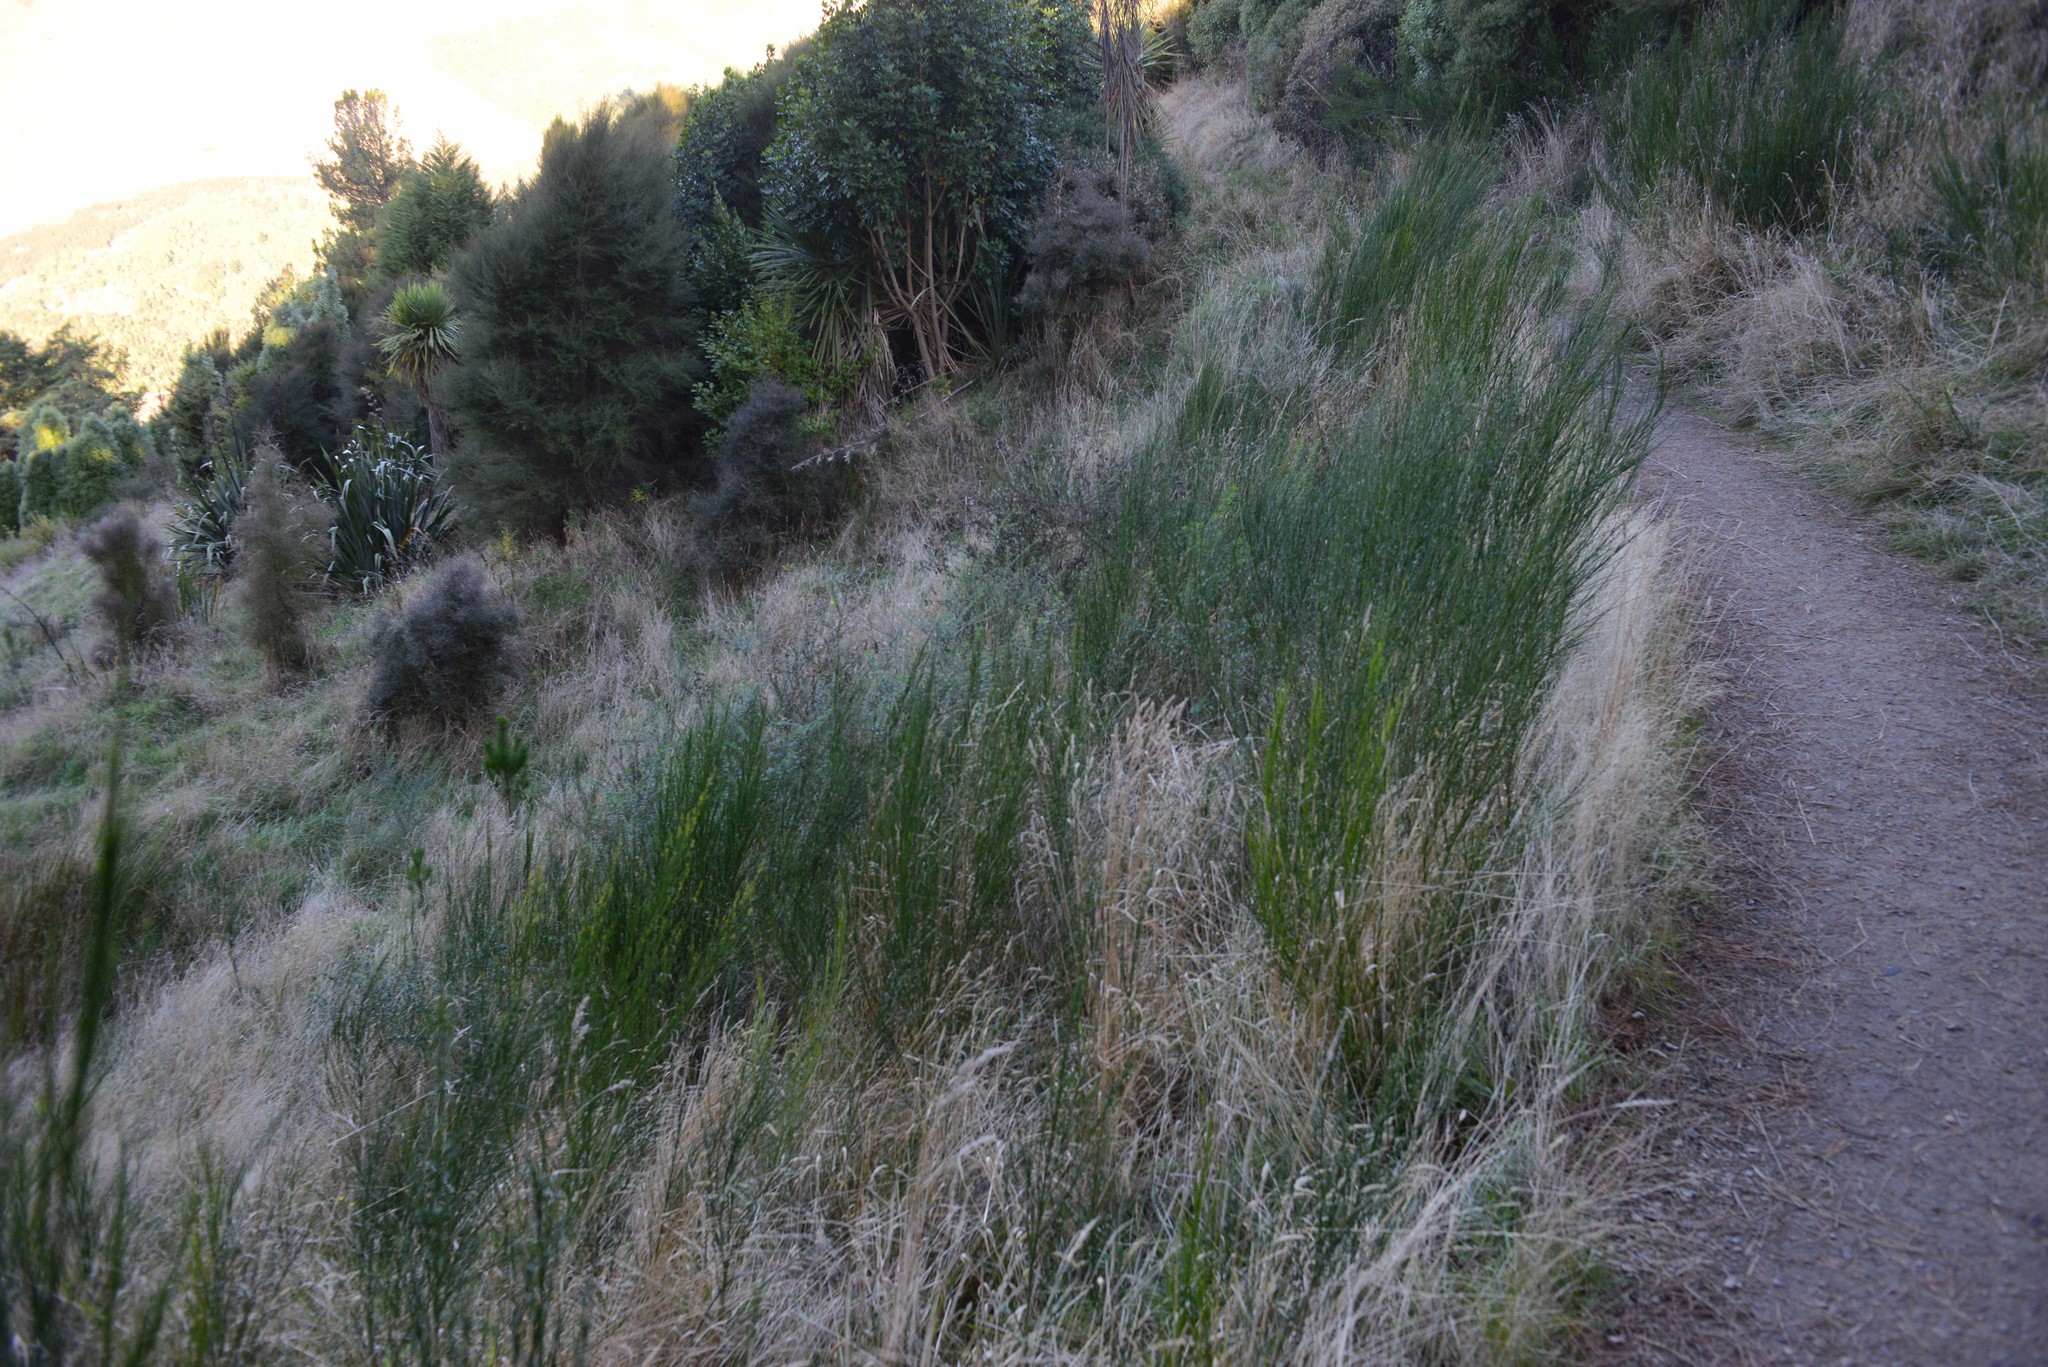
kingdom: Plantae
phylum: Tracheophyta
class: Magnoliopsida
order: Fabales
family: Fabaceae
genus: Cytisus
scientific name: Cytisus scoparius
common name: Scotch broom
